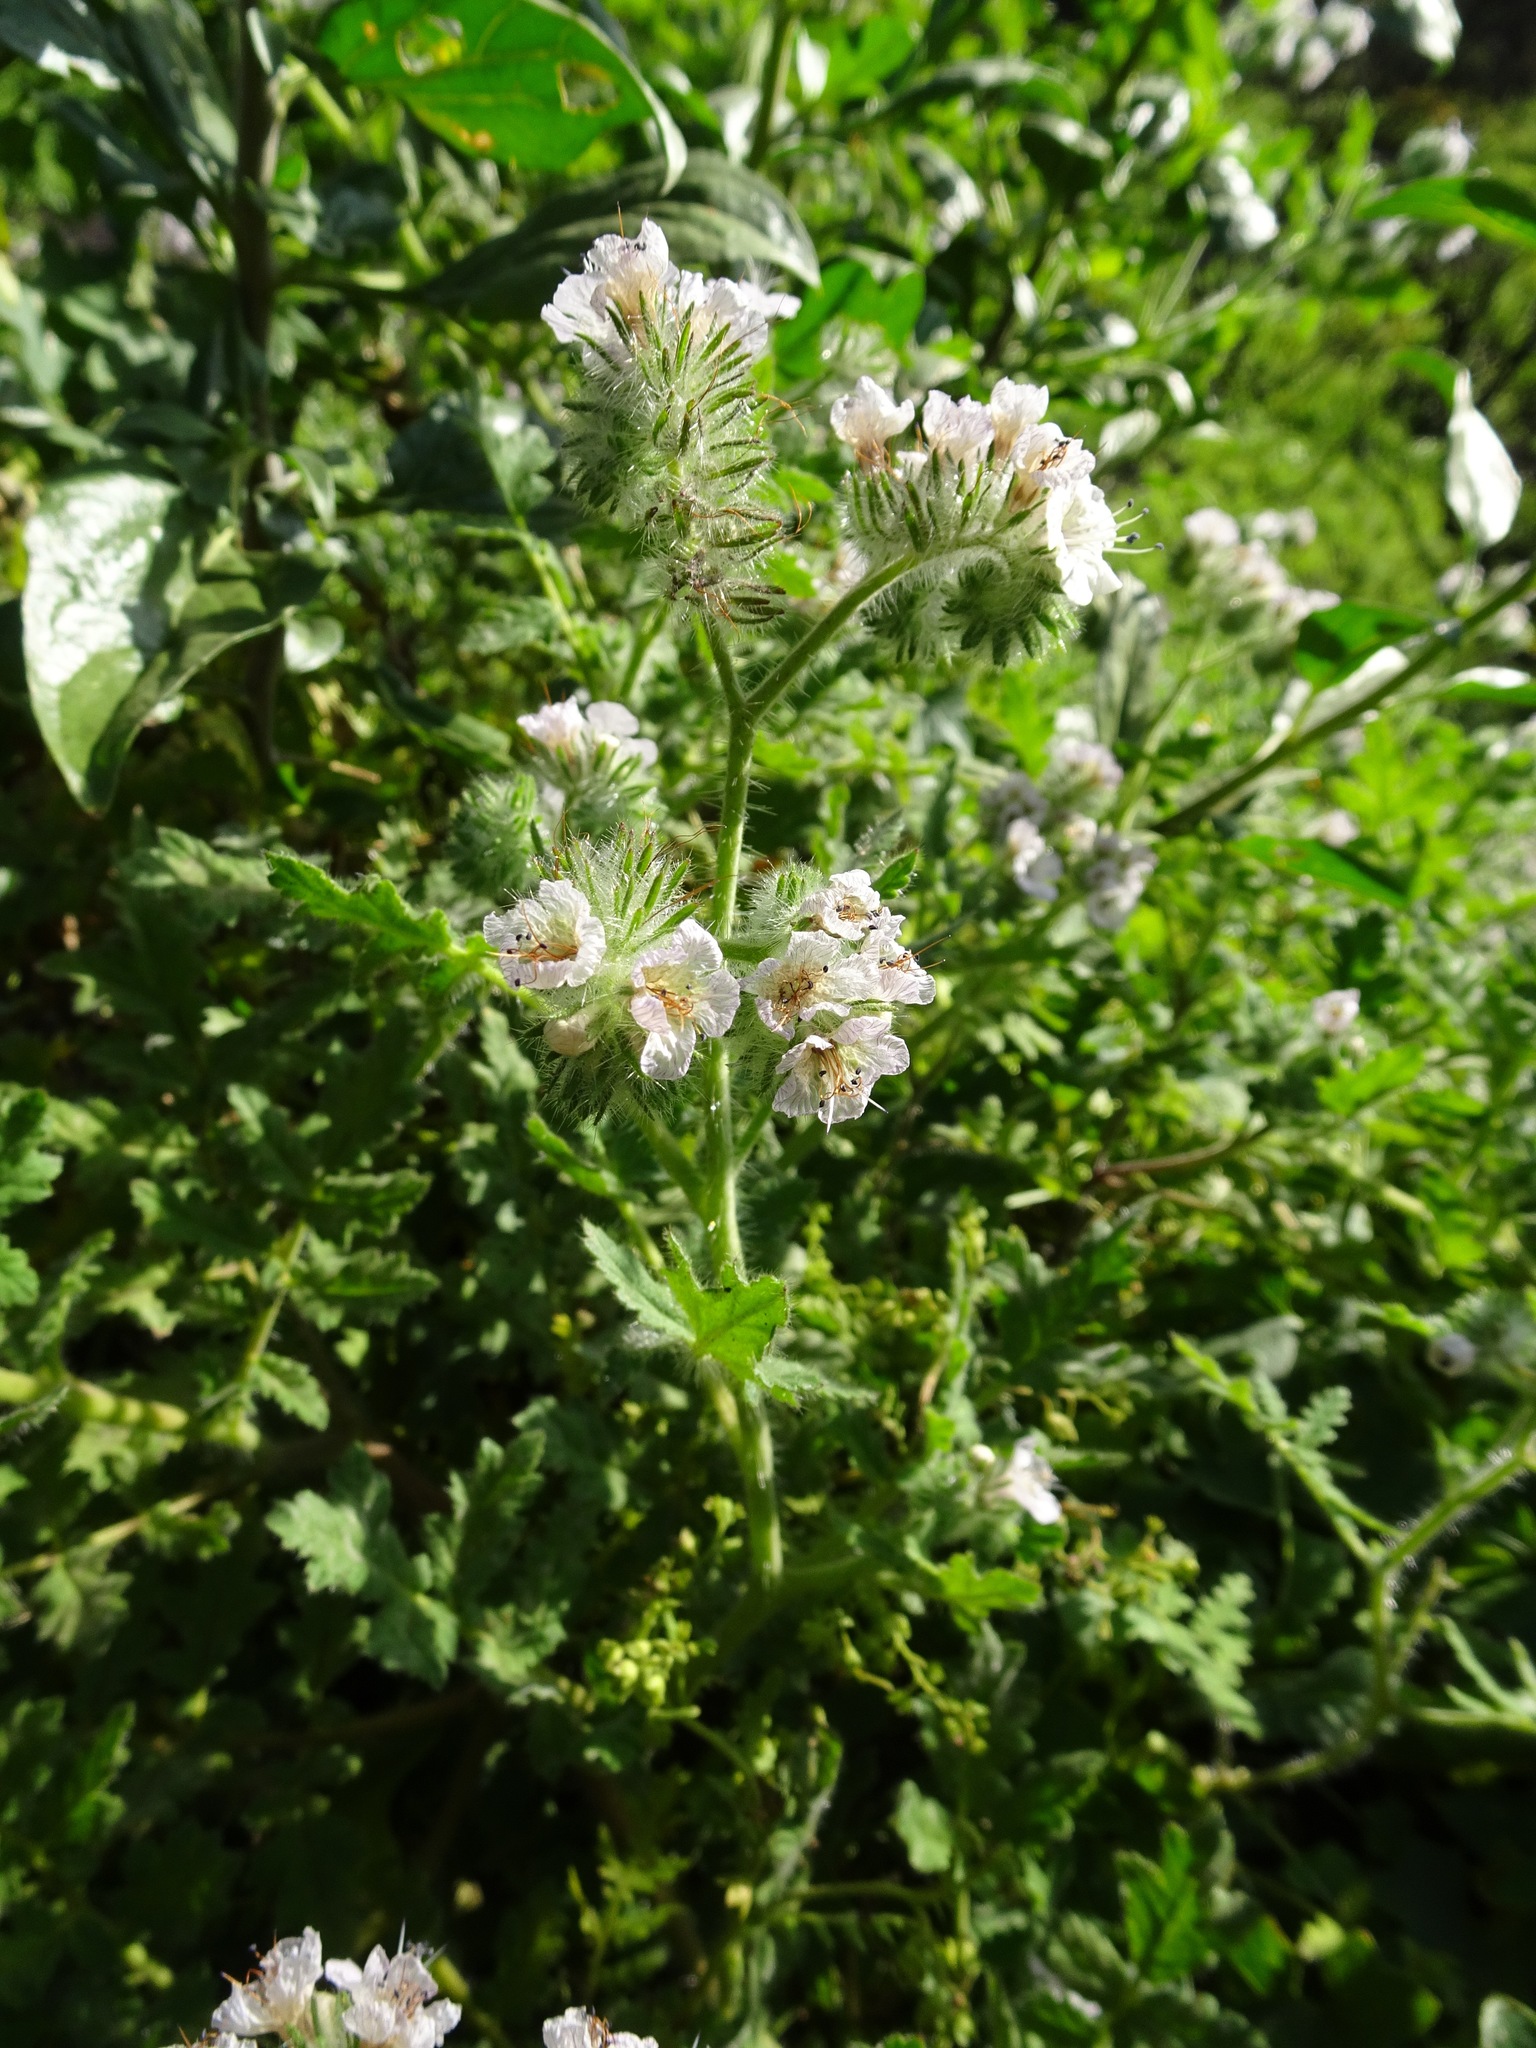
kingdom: Plantae
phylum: Tracheophyta
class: Magnoliopsida
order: Boraginales
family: Hydrophyllaceae
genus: Phacelia
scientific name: Phacelia cicutaria
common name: Caterpillar phacelia
